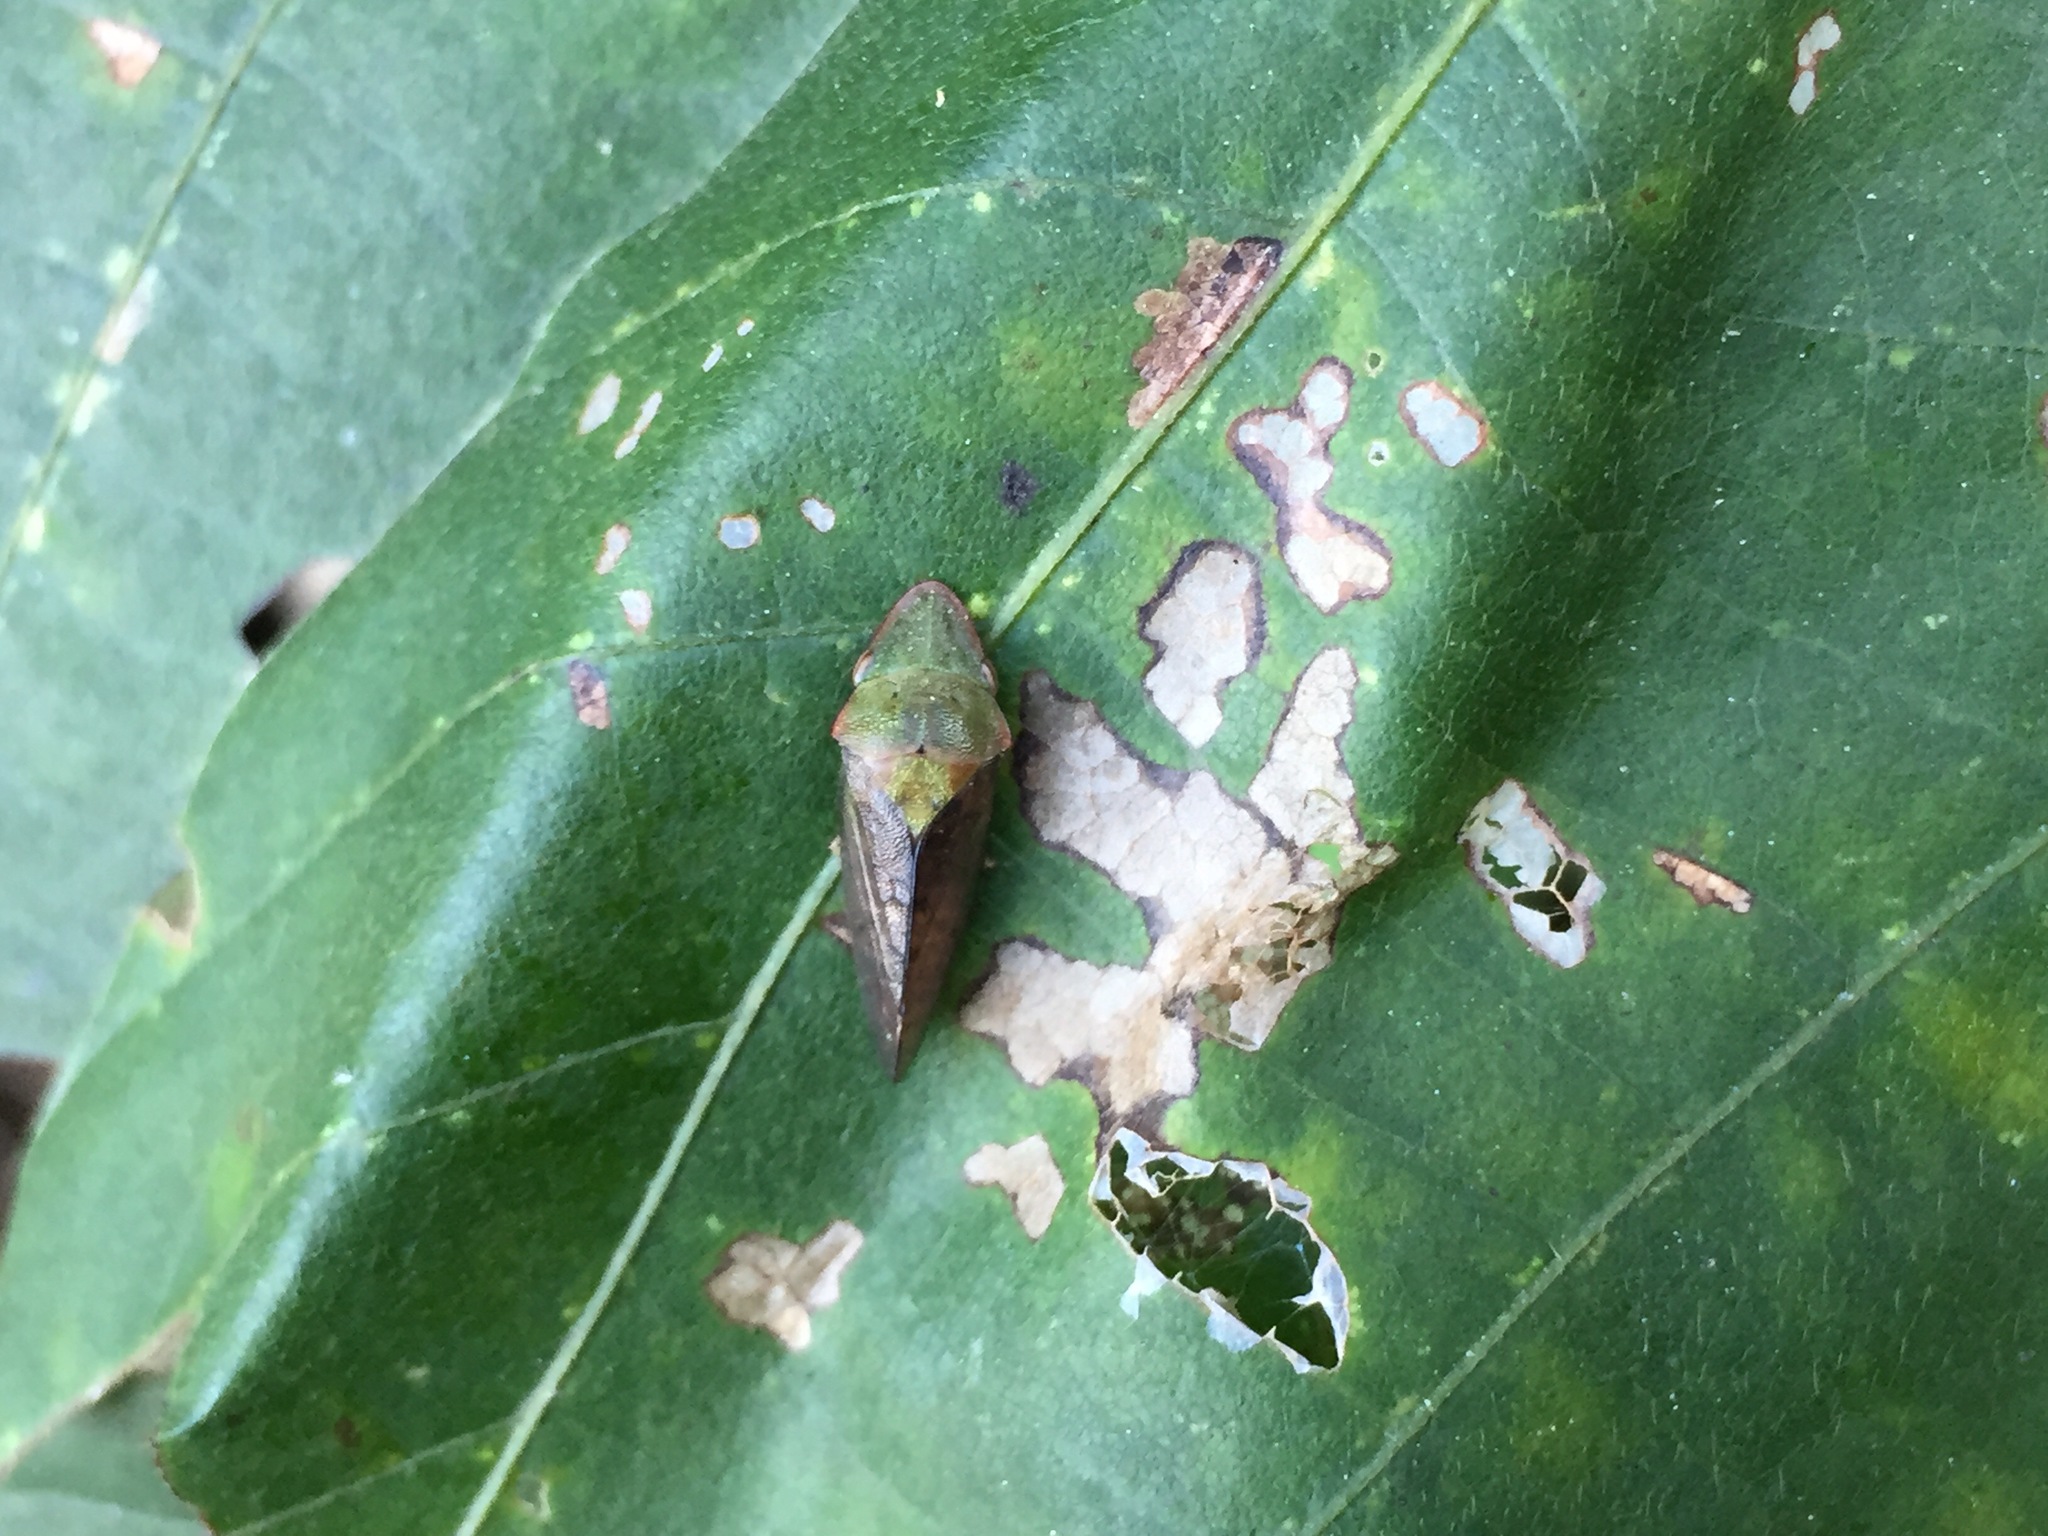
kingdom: Animalia
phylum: Arthropoda
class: Insecta
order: Hemiptera
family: Cicadellidae
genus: Neotituria
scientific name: Neotituria kongosana
